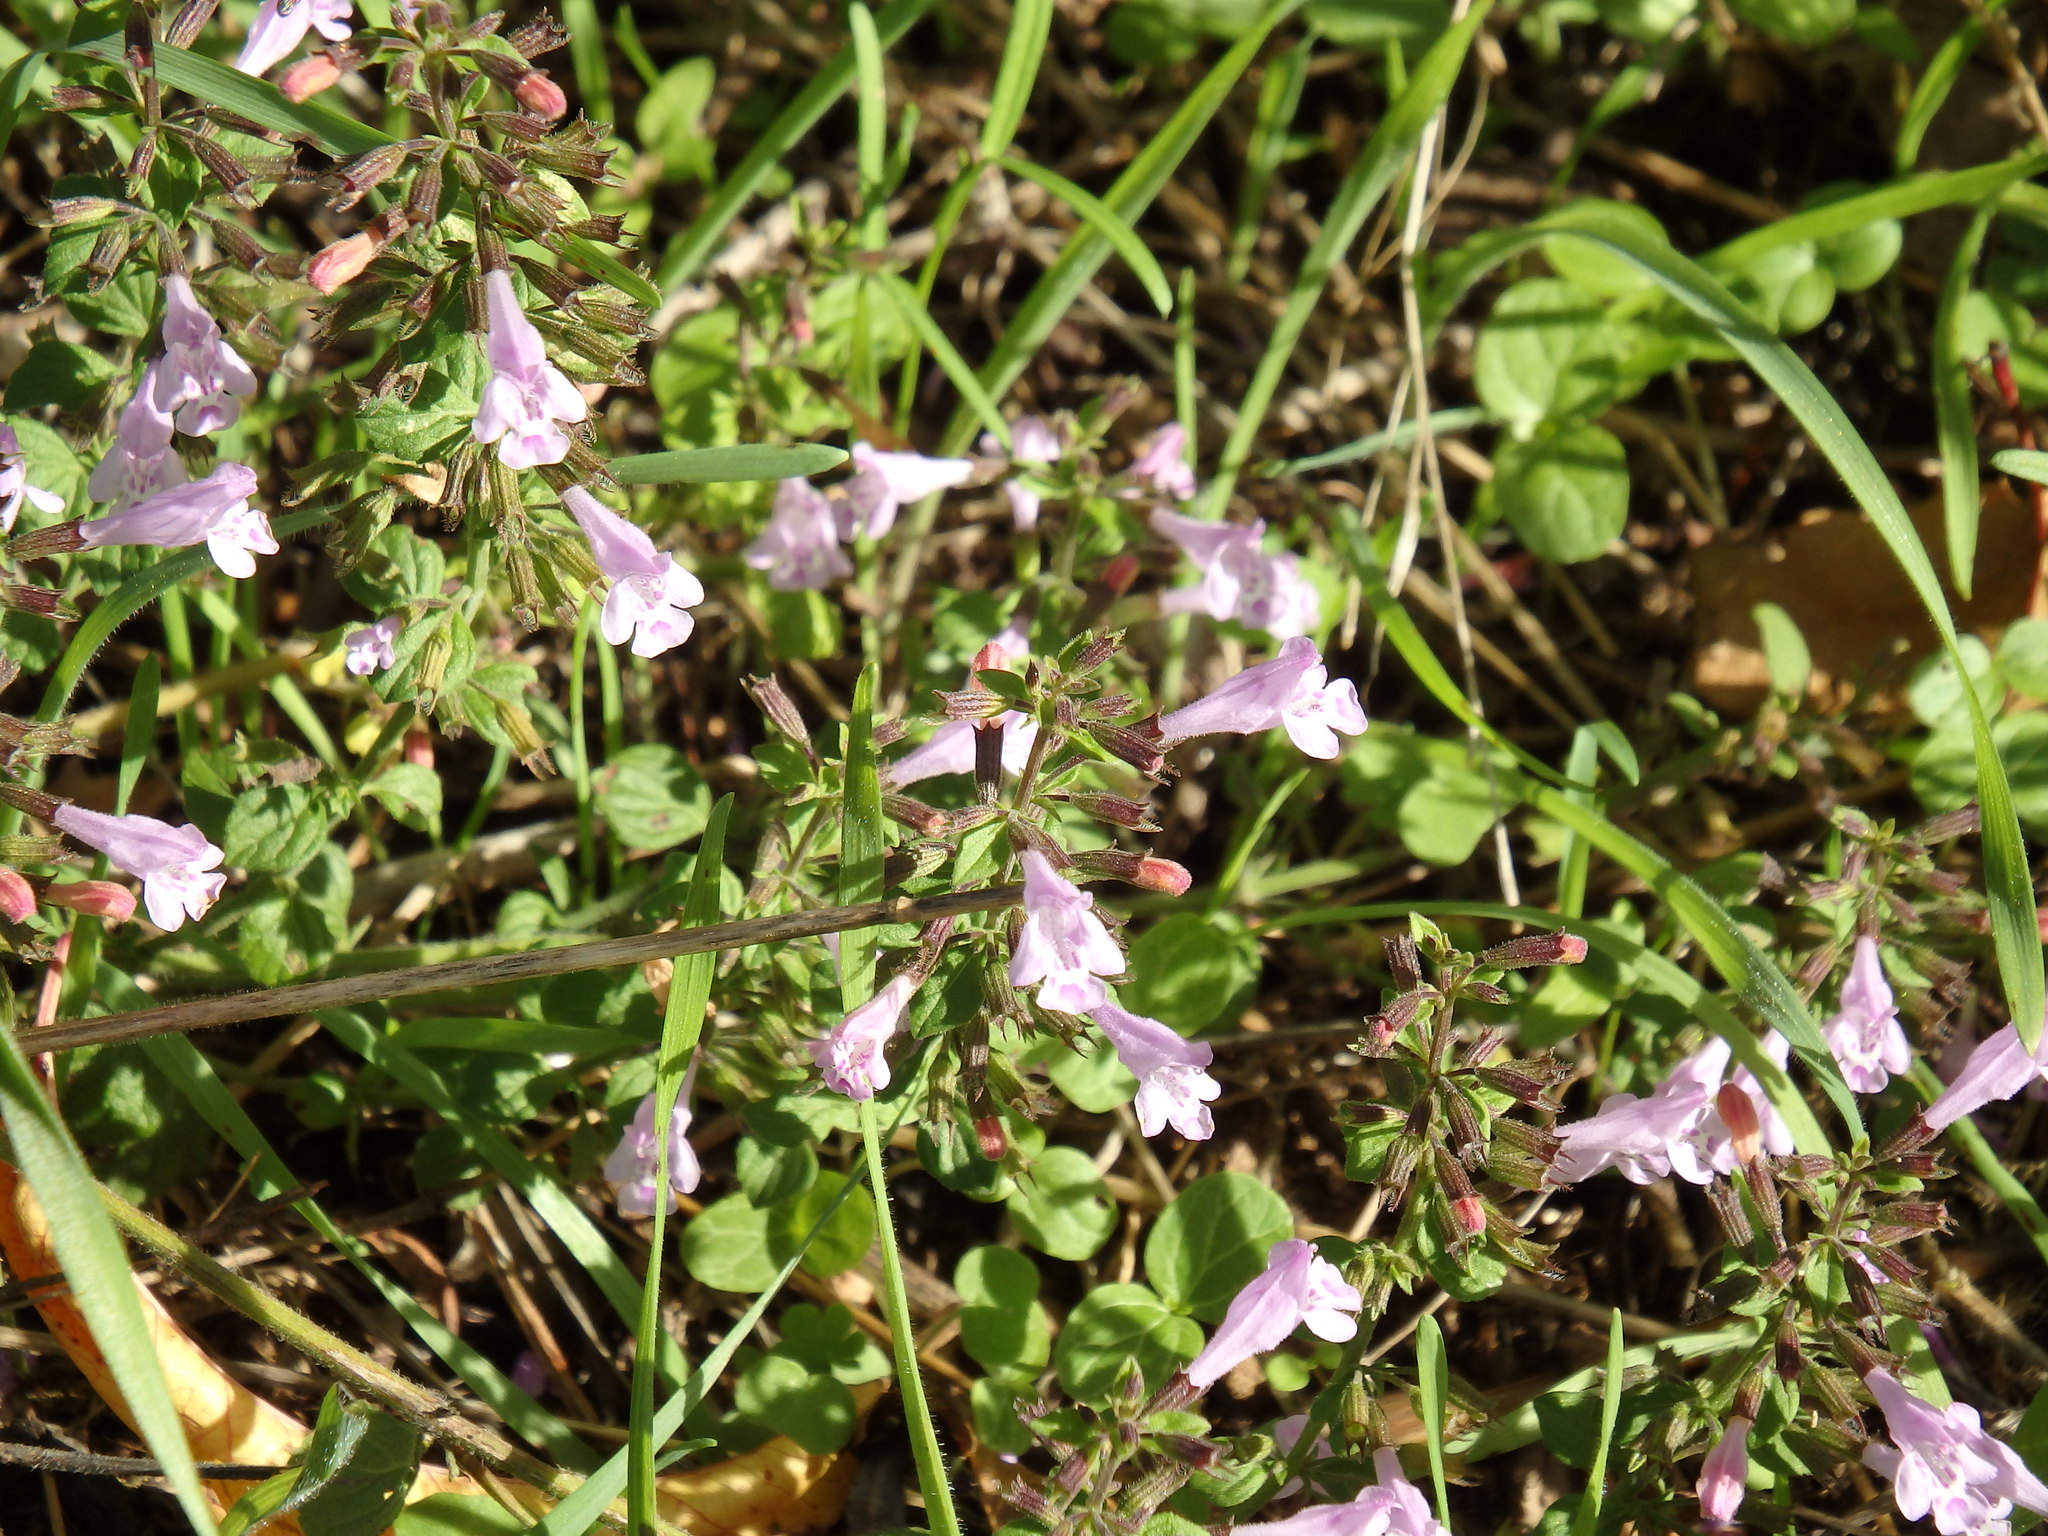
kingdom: Plantae
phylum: Tracheophyta
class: Magnoliopsida
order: Lamiales
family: Lamiaceae
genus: Clinopodium
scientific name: Clinopodium nepeta
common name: Lesser calamint
